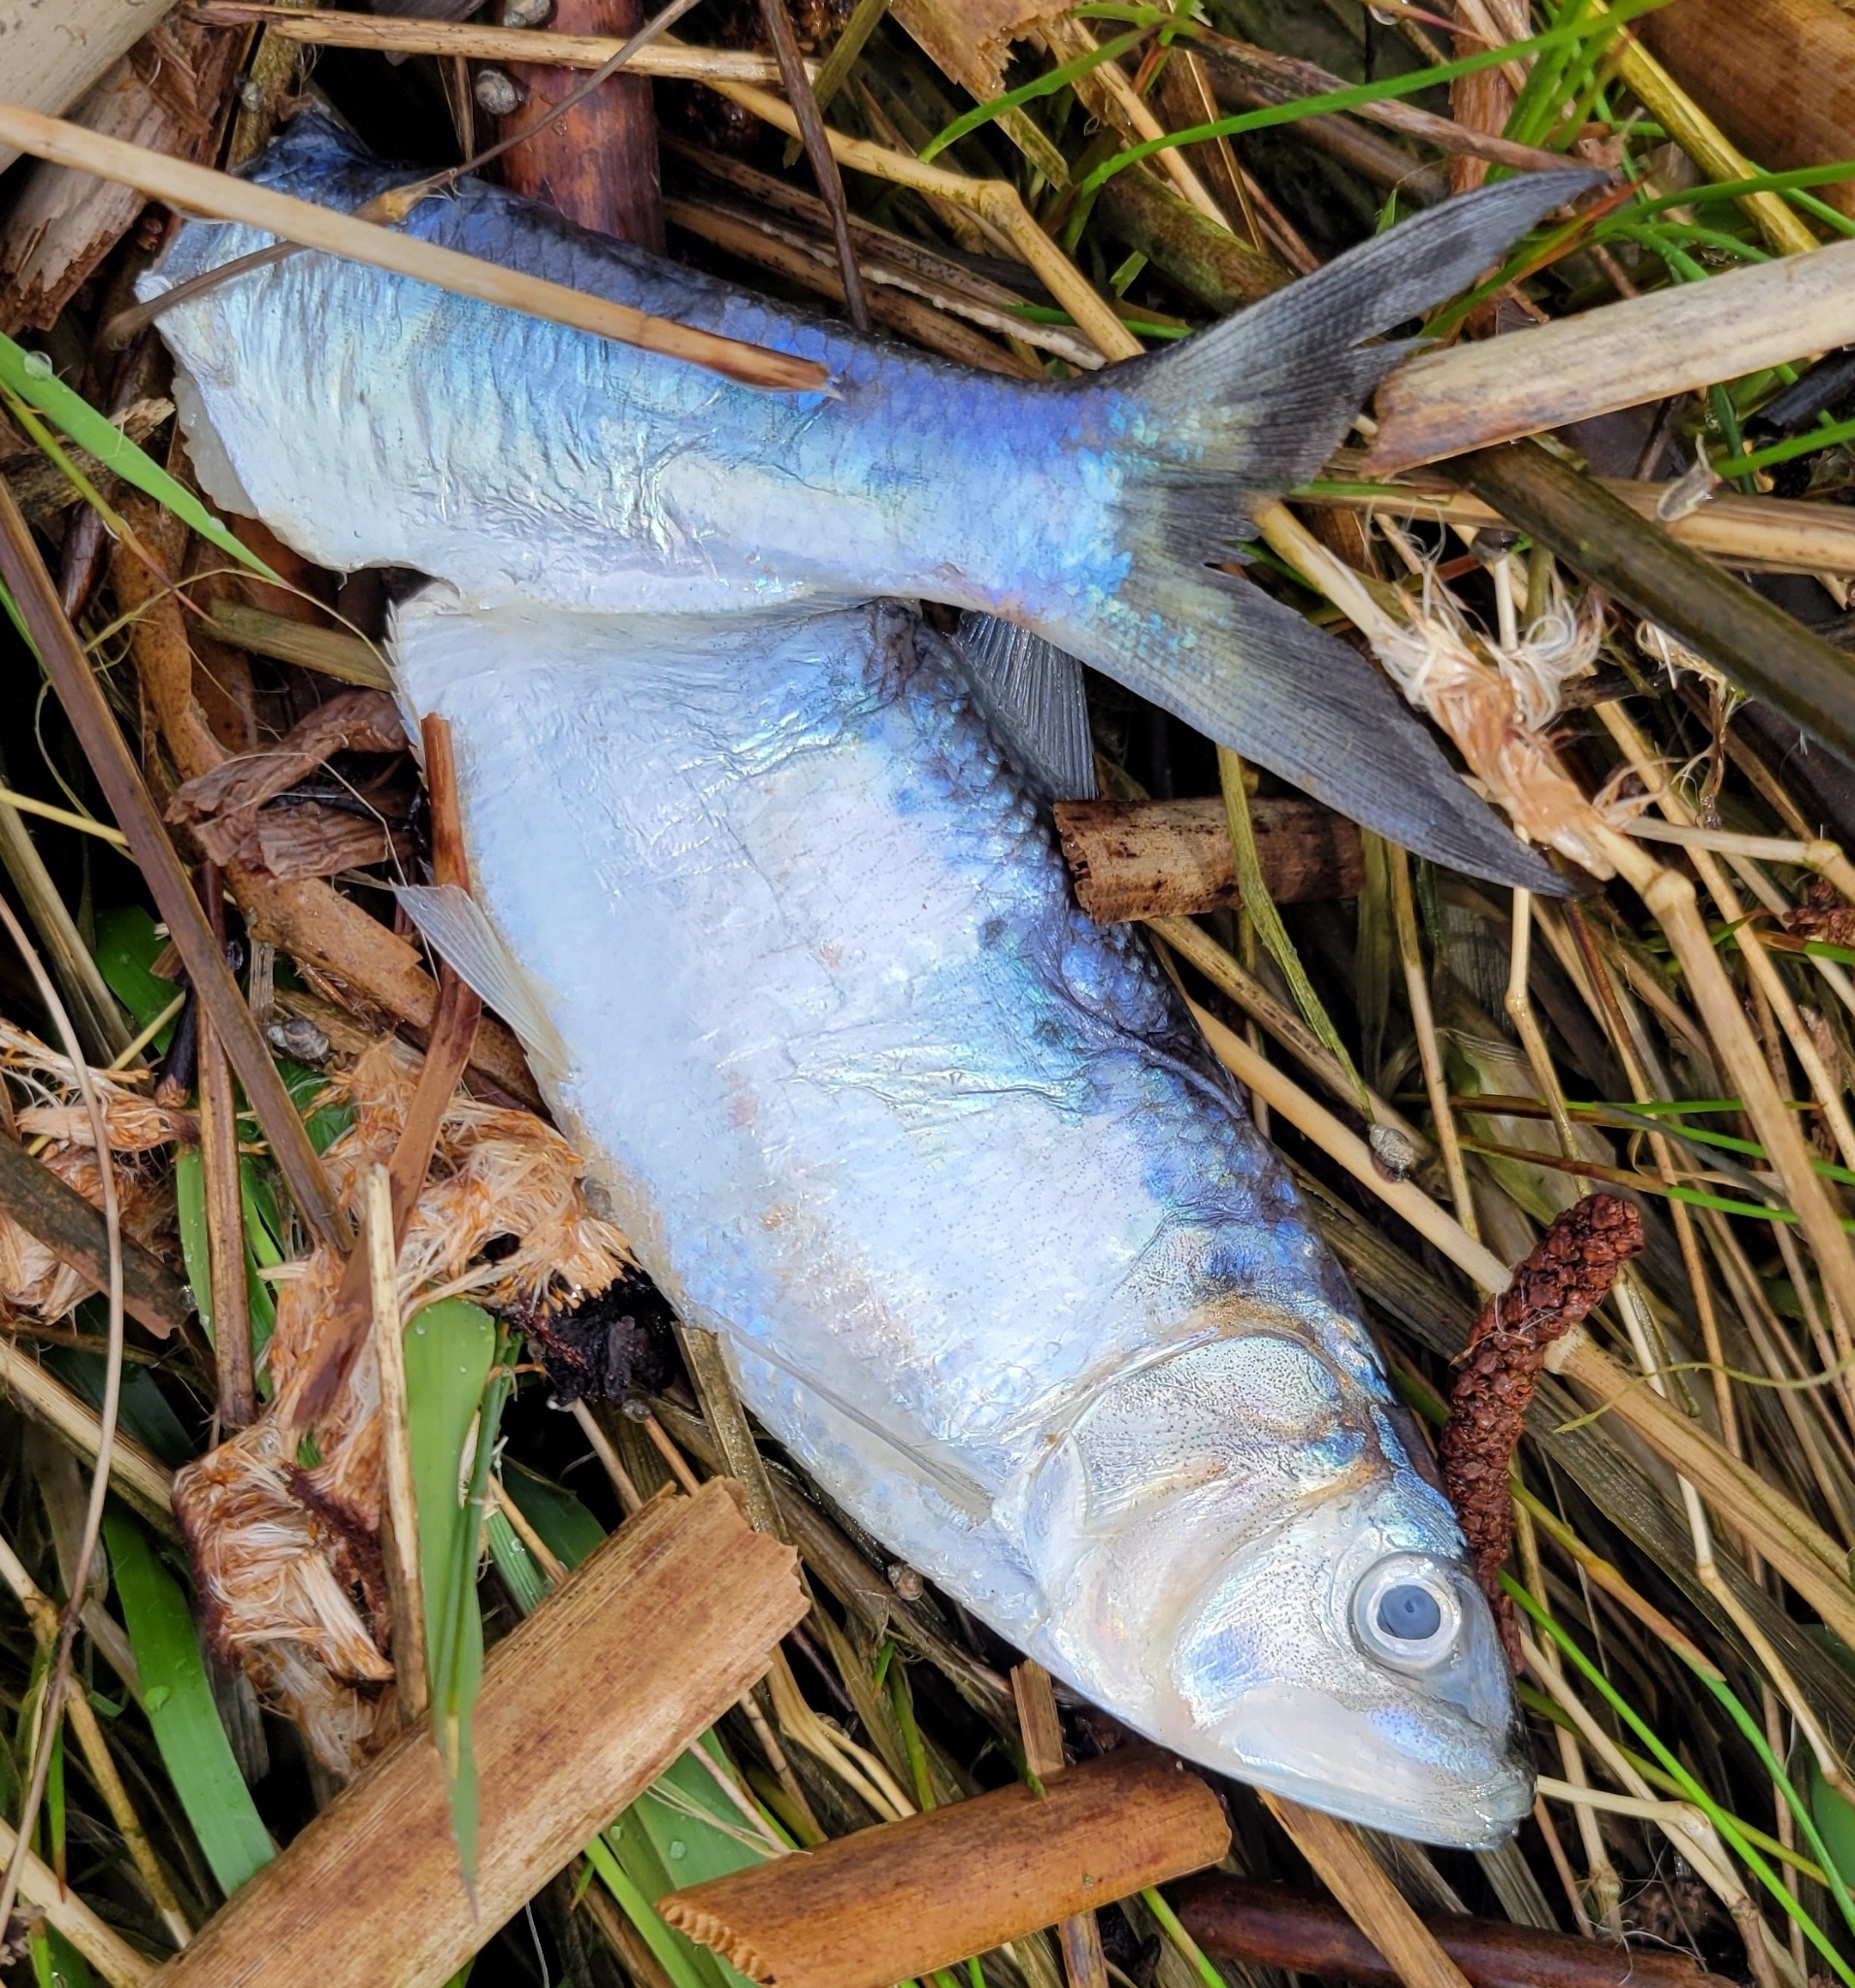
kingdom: Animalia
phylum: Chordata
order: Clupeiformes
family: Clupeidae
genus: Alosa
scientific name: Alosa sapidissima
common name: American shad
